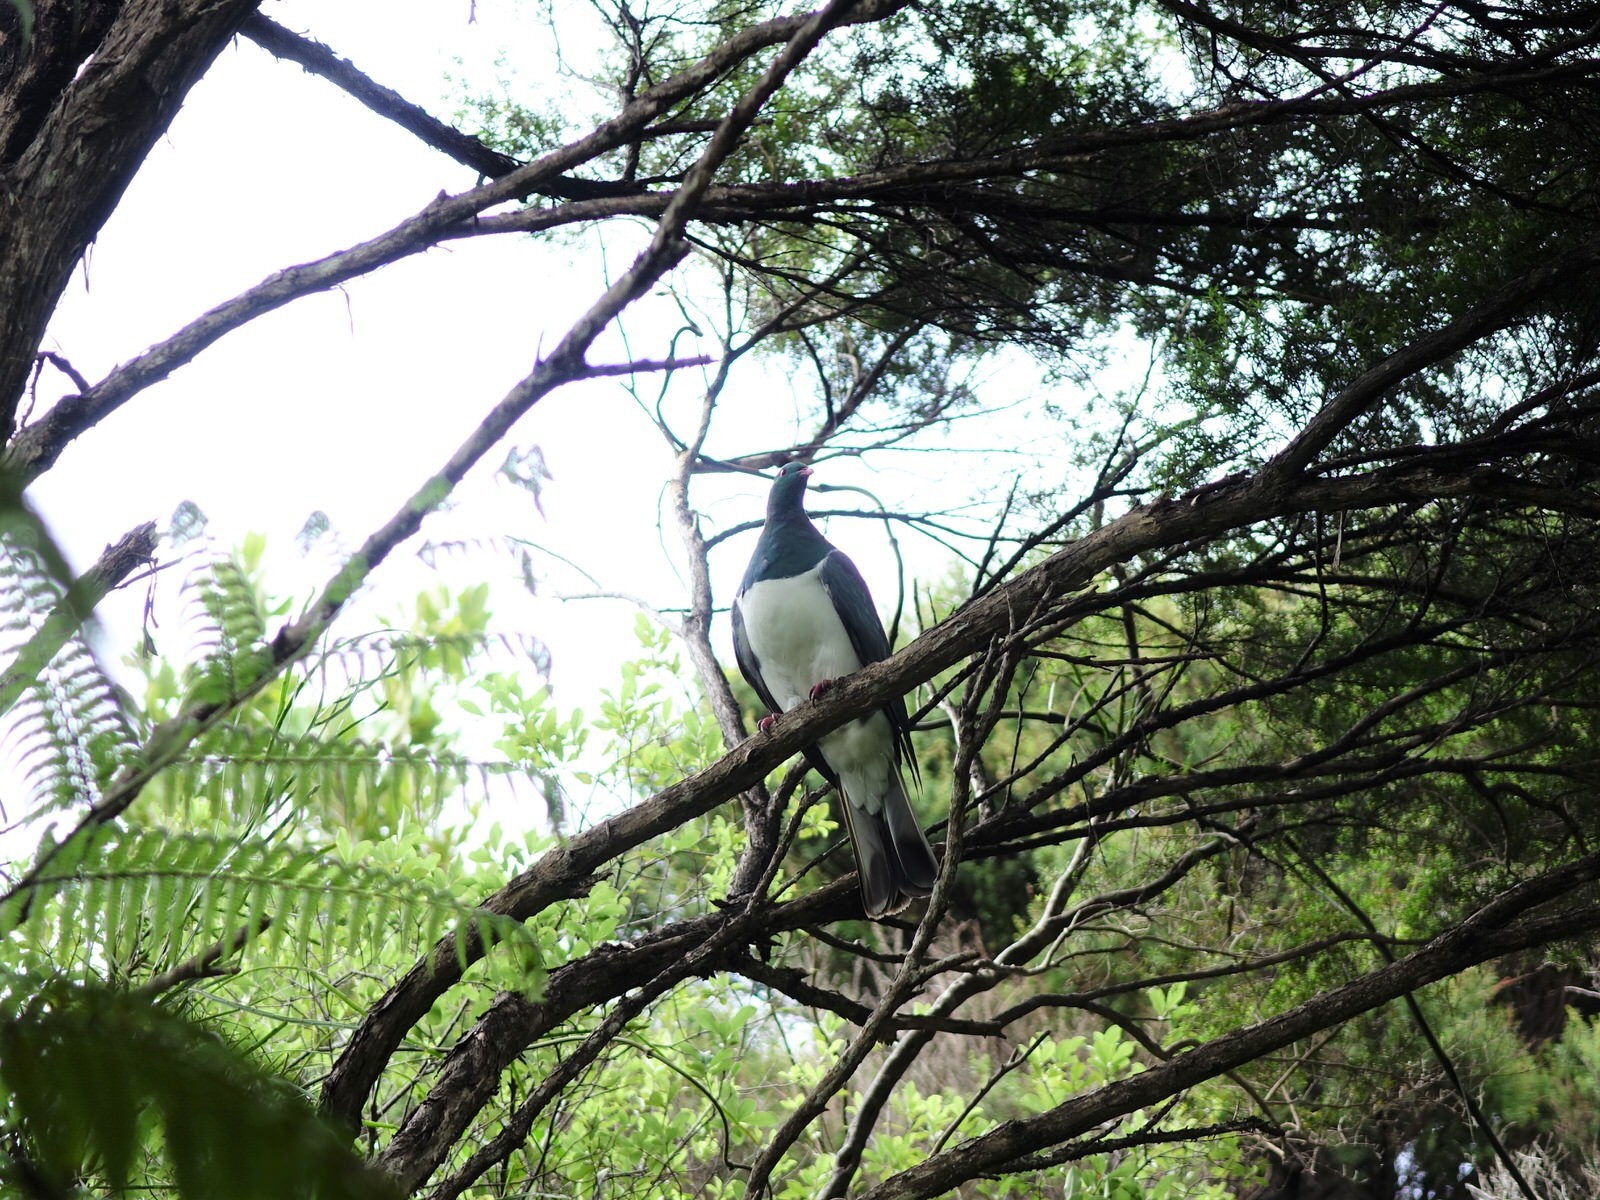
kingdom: Animalia
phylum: Chordata
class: Aves
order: Columbiformes
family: Columbidae
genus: Hemiphaga
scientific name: Hemiphaga novaeseelandiae
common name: New zealand pigeon
